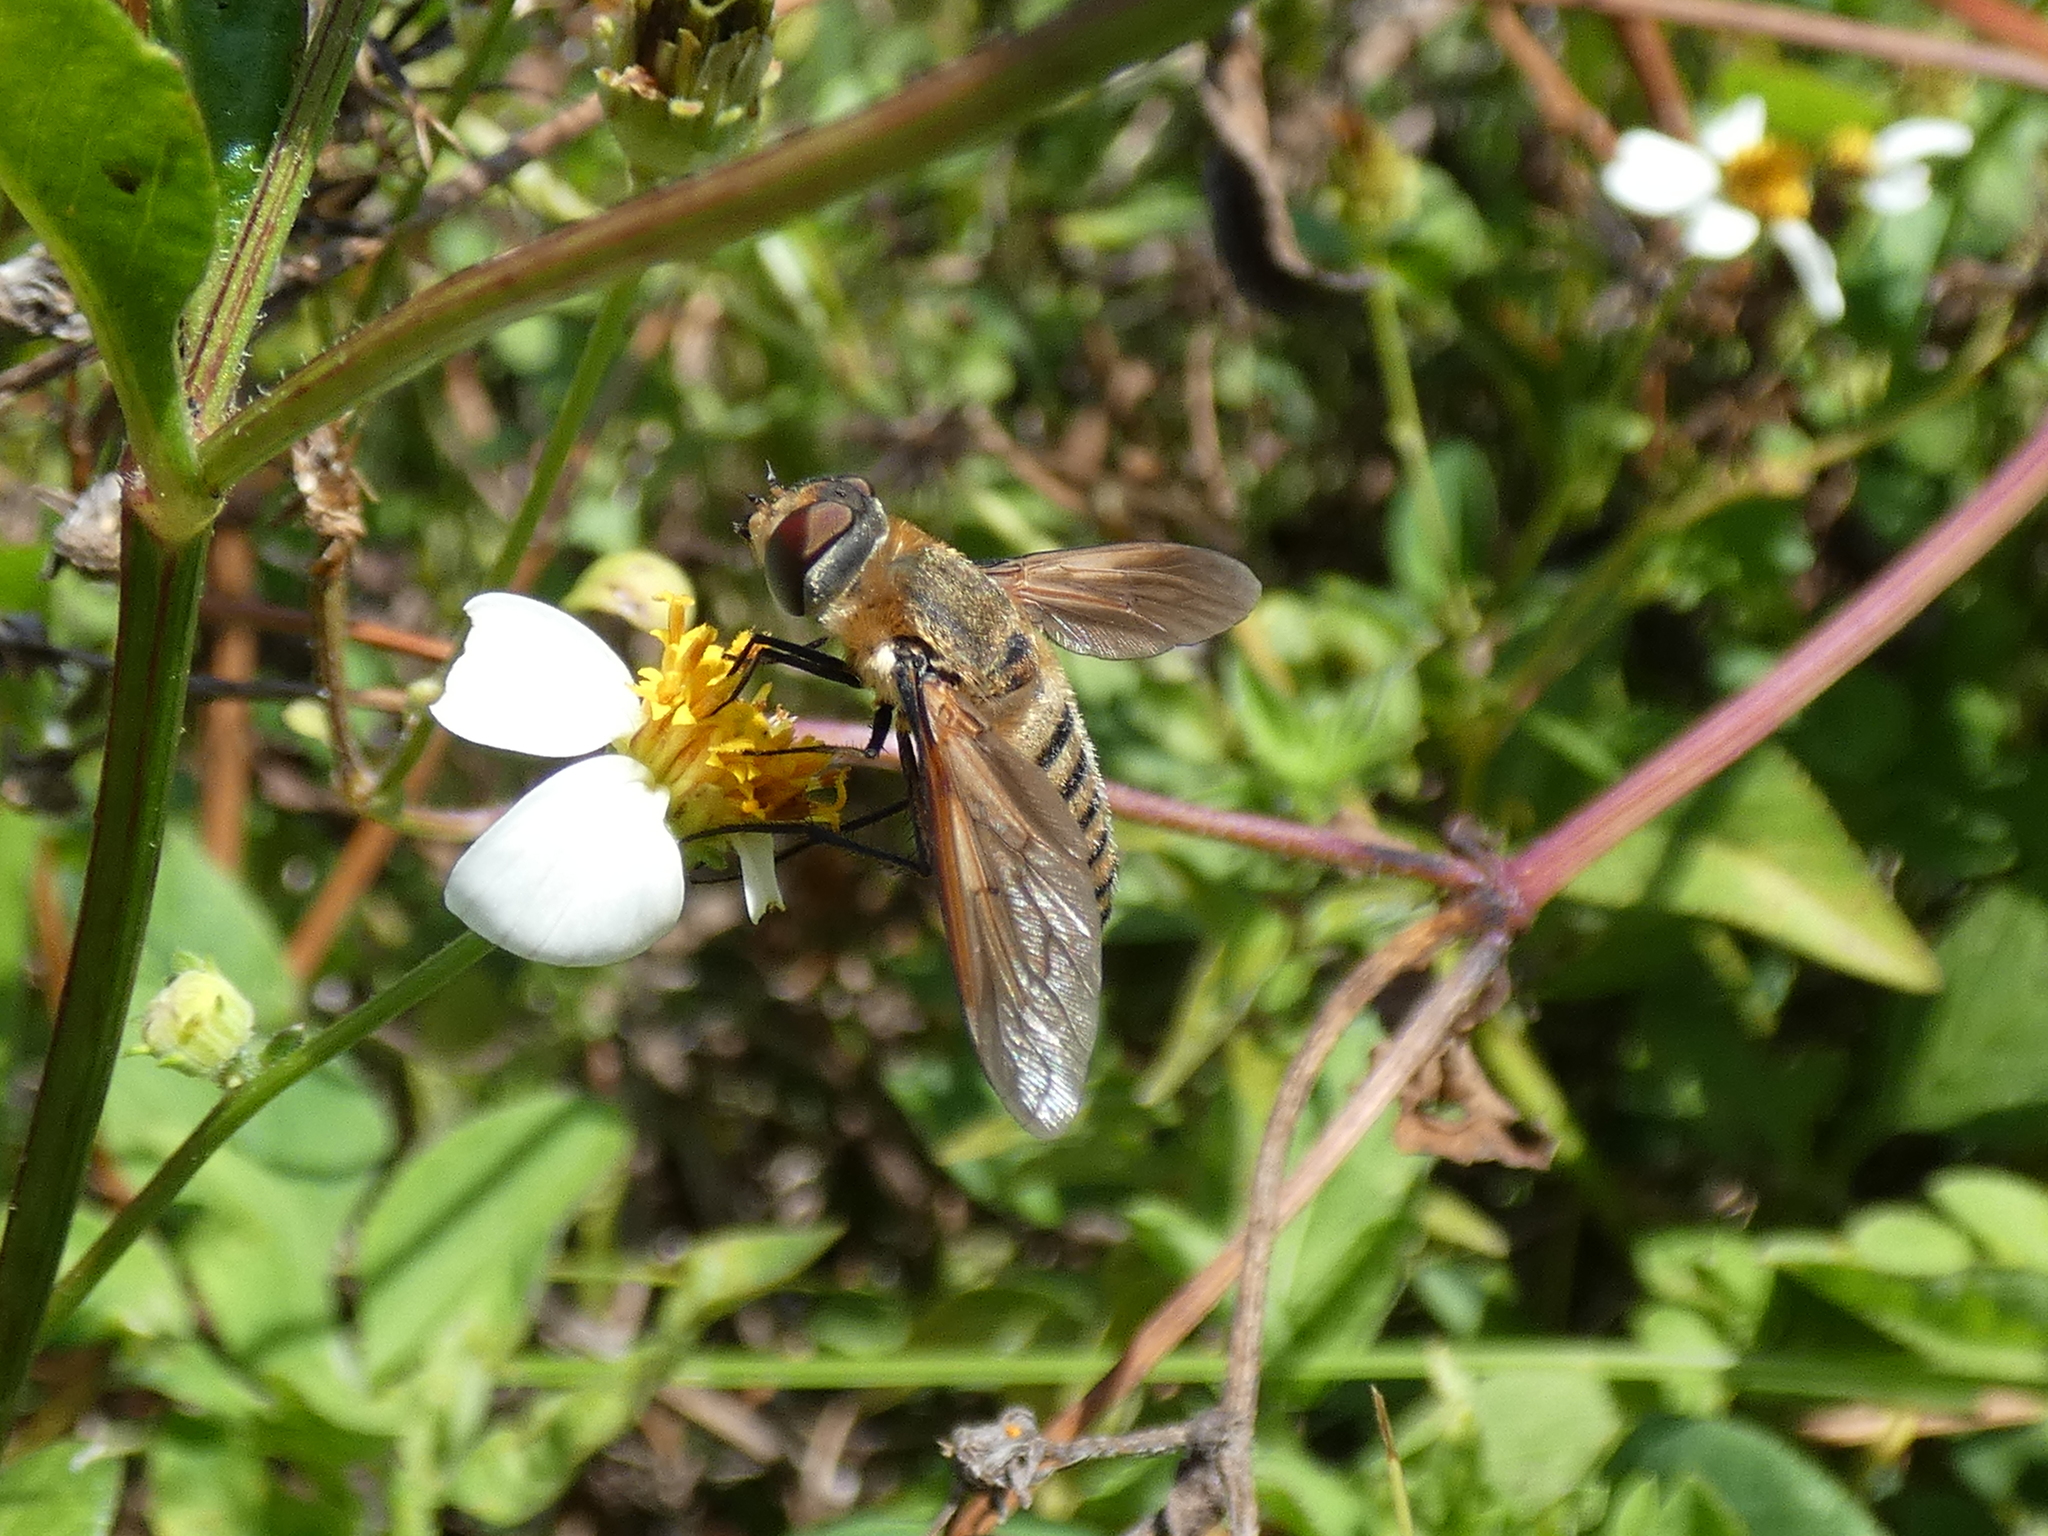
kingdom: Animalia
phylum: Arthropoda
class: Insecta
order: Diptera
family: Bombyliidae
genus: Poecilanthrax
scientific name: Poecilanthrax lucifer
